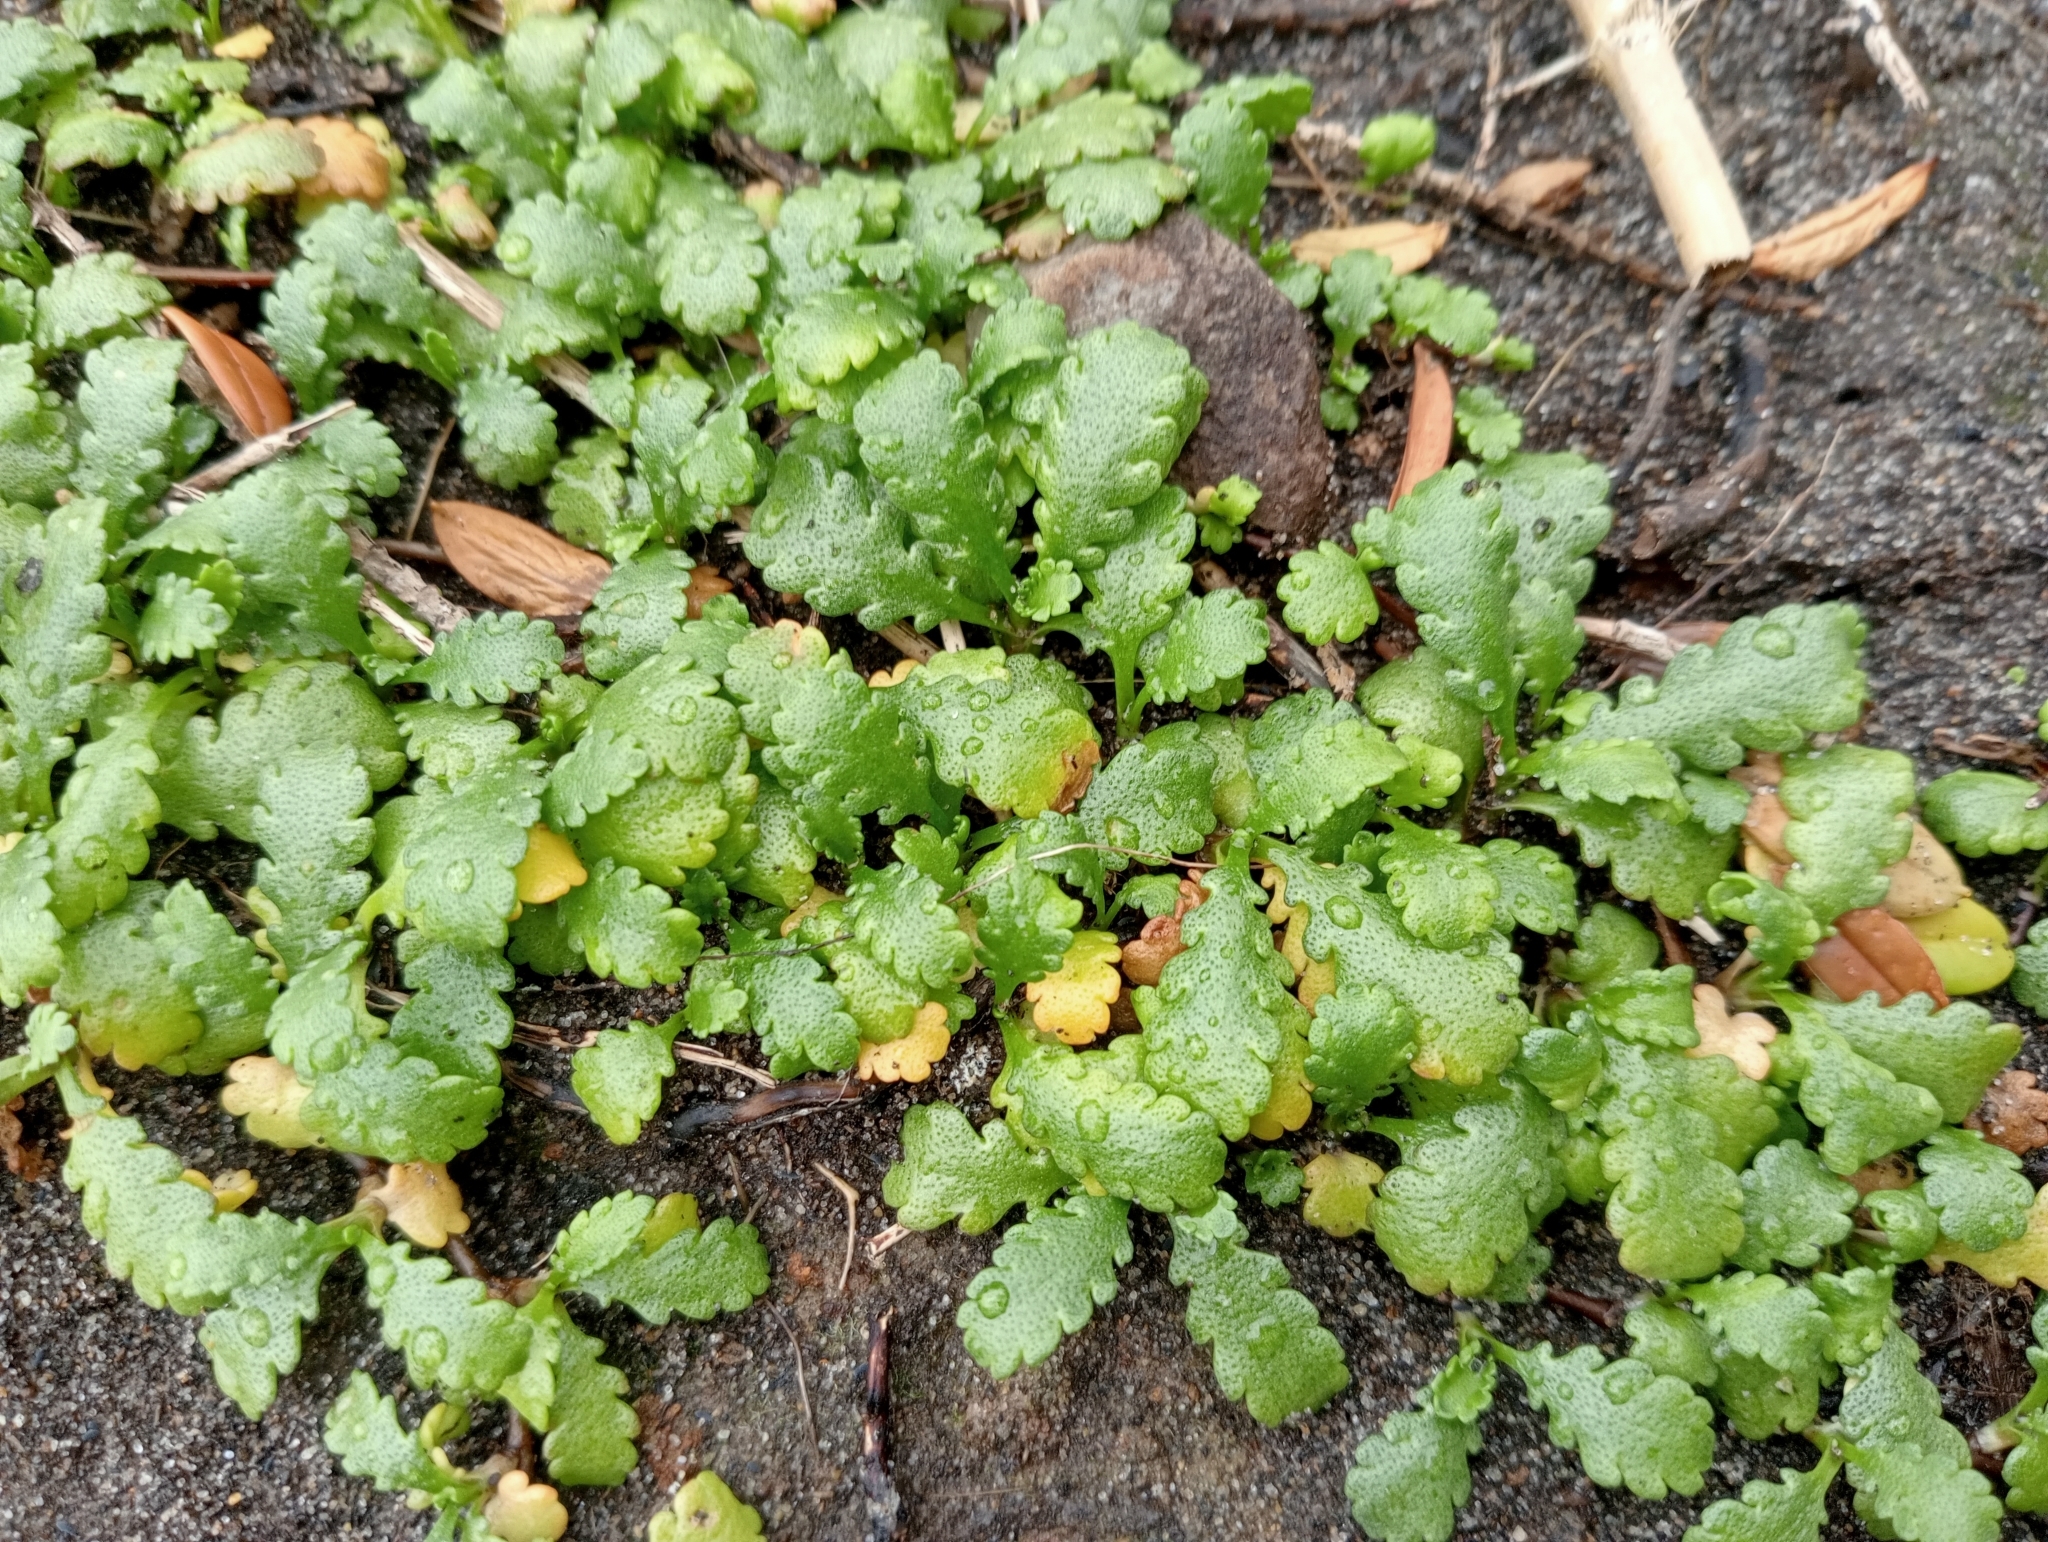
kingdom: Plantae
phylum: Tracheophyta
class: Magnoliopsida
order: Asterales
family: Asteraceae
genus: Leptinella
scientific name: Leptinella dioica
